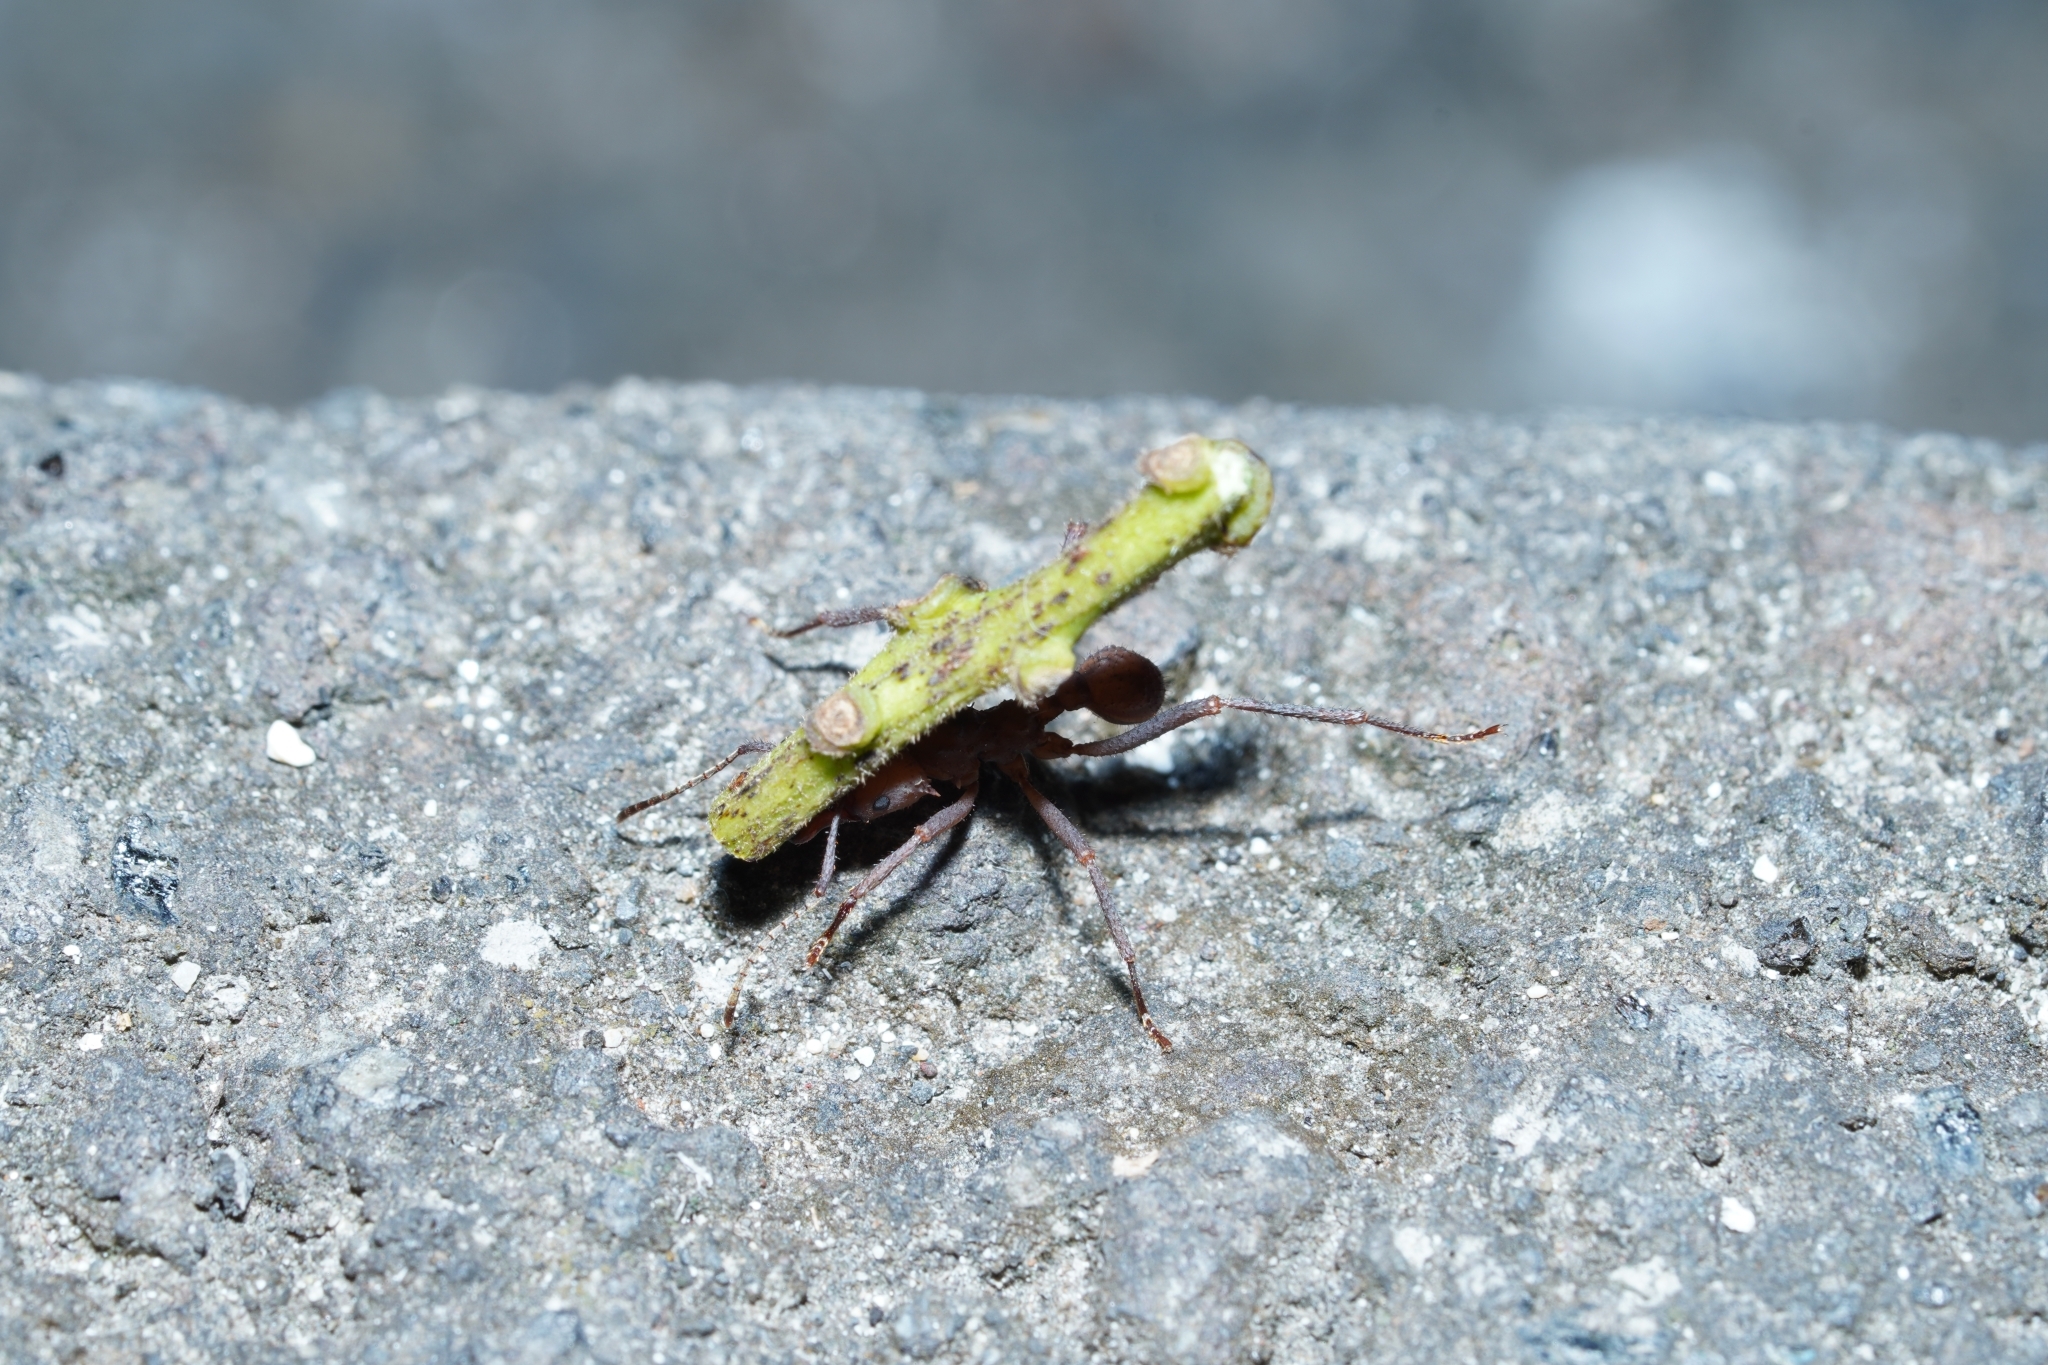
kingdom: Animalia
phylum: Arthropoda
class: Insecta
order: Hymenoptera
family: Formicidae
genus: Acromyrmex
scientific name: Acromyrmex octospinosus
